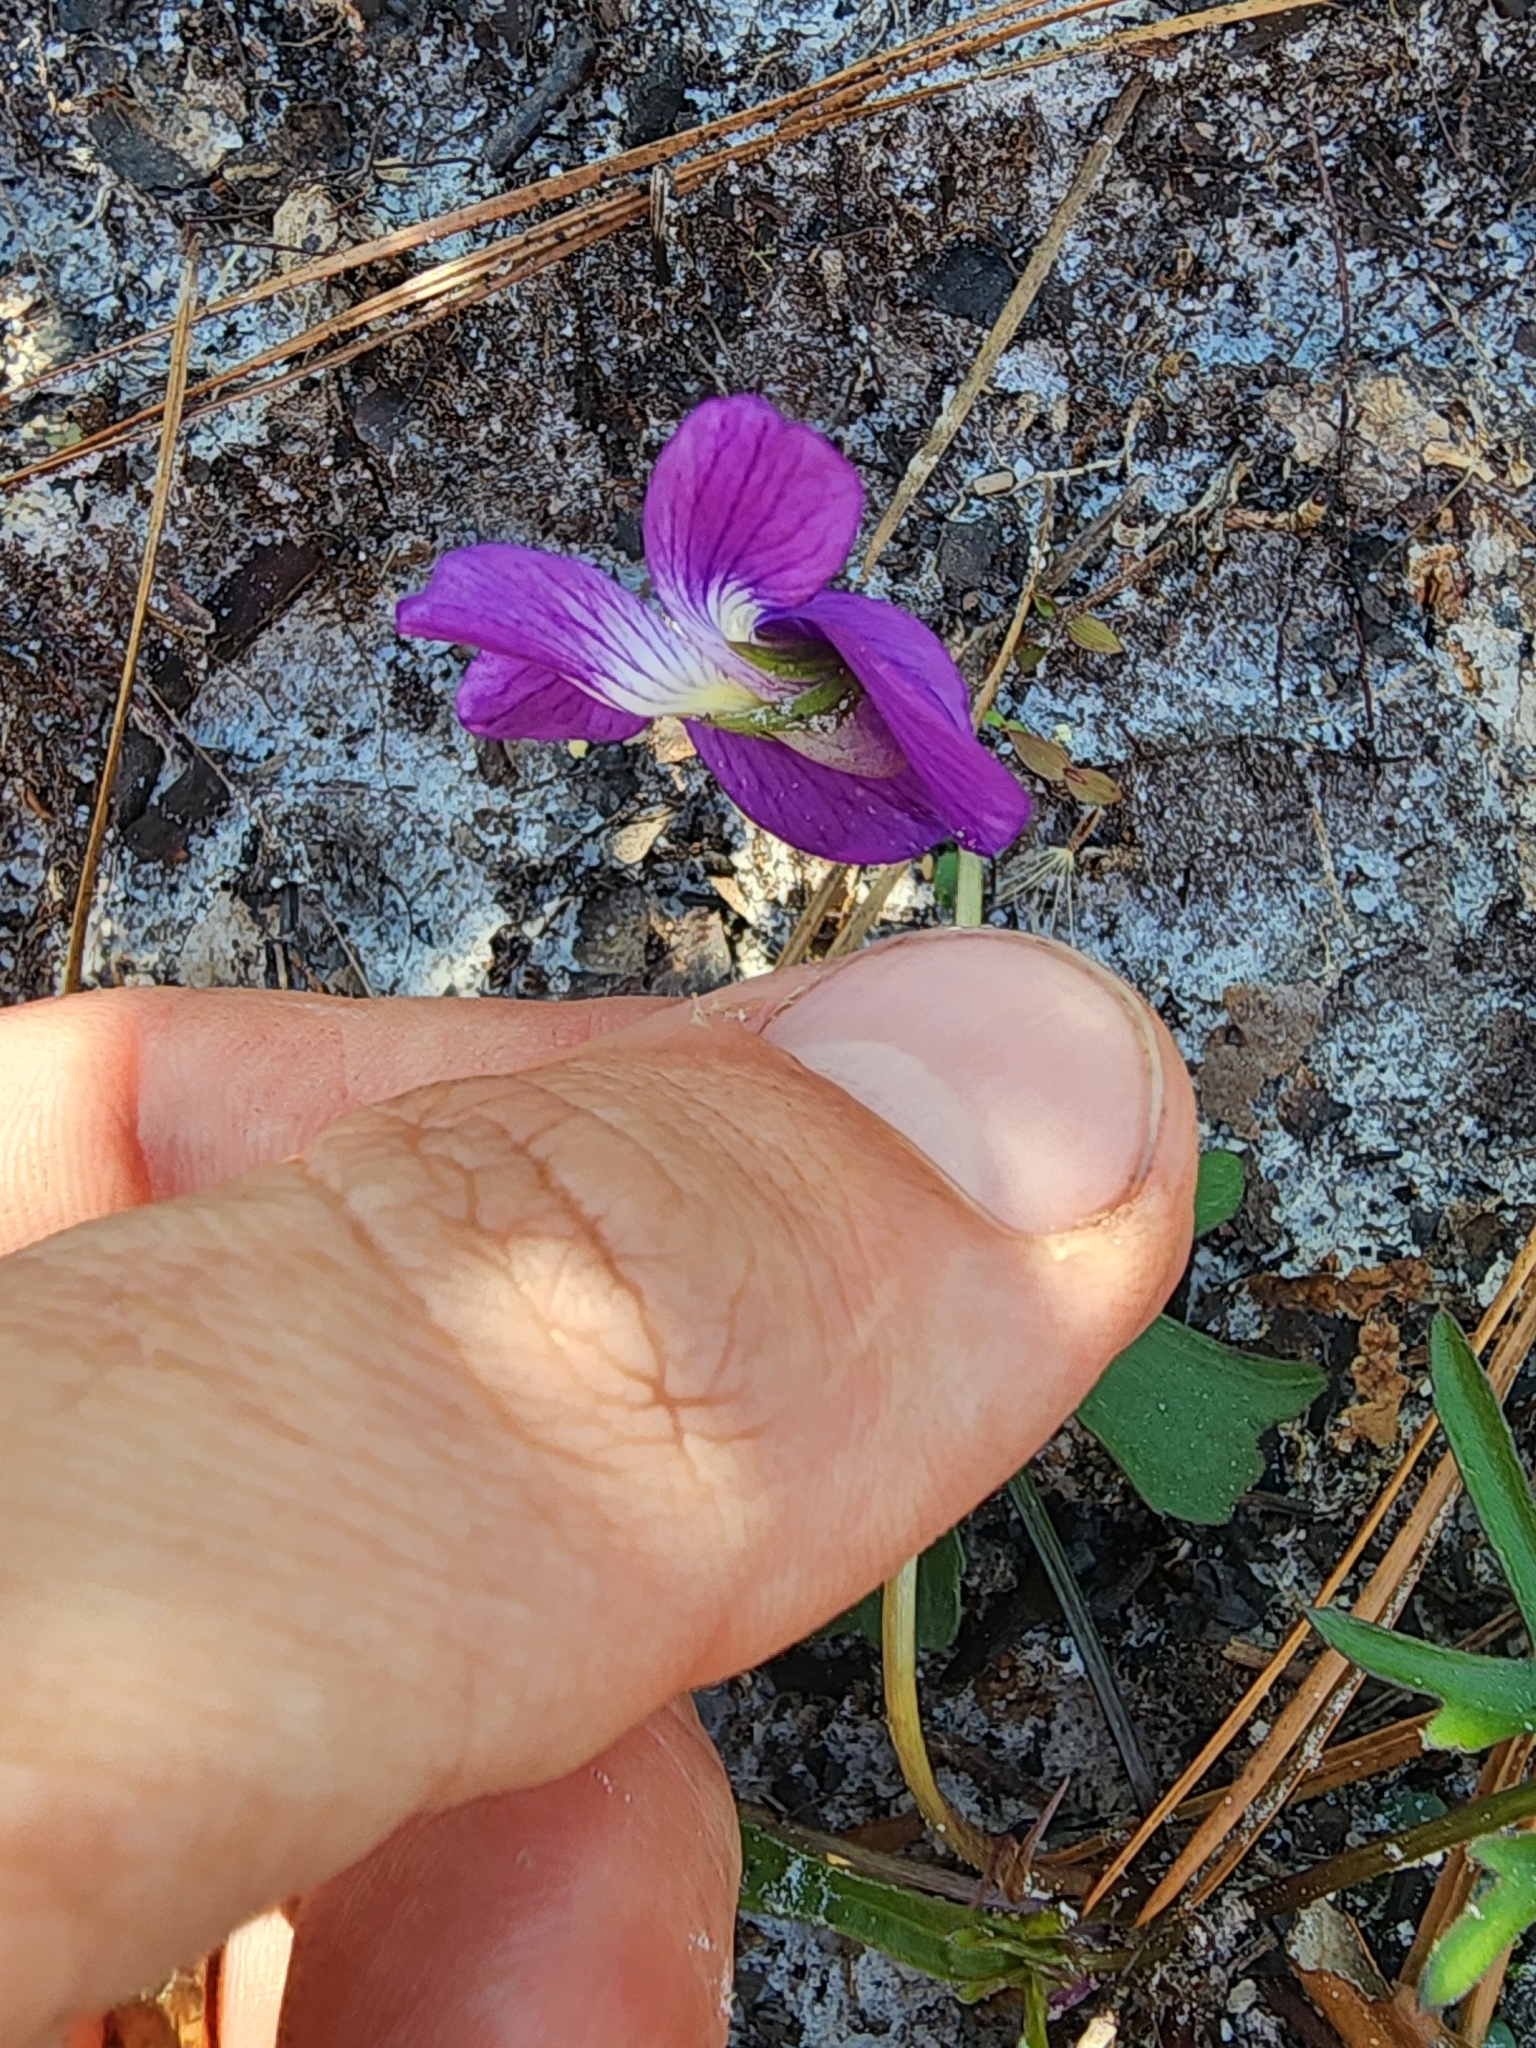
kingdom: Plantae
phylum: Tracheophyta
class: Magnoliopsida
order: Malpighiales
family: Violaceae
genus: Viola
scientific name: Viola septemloba
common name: Southern coast violet
